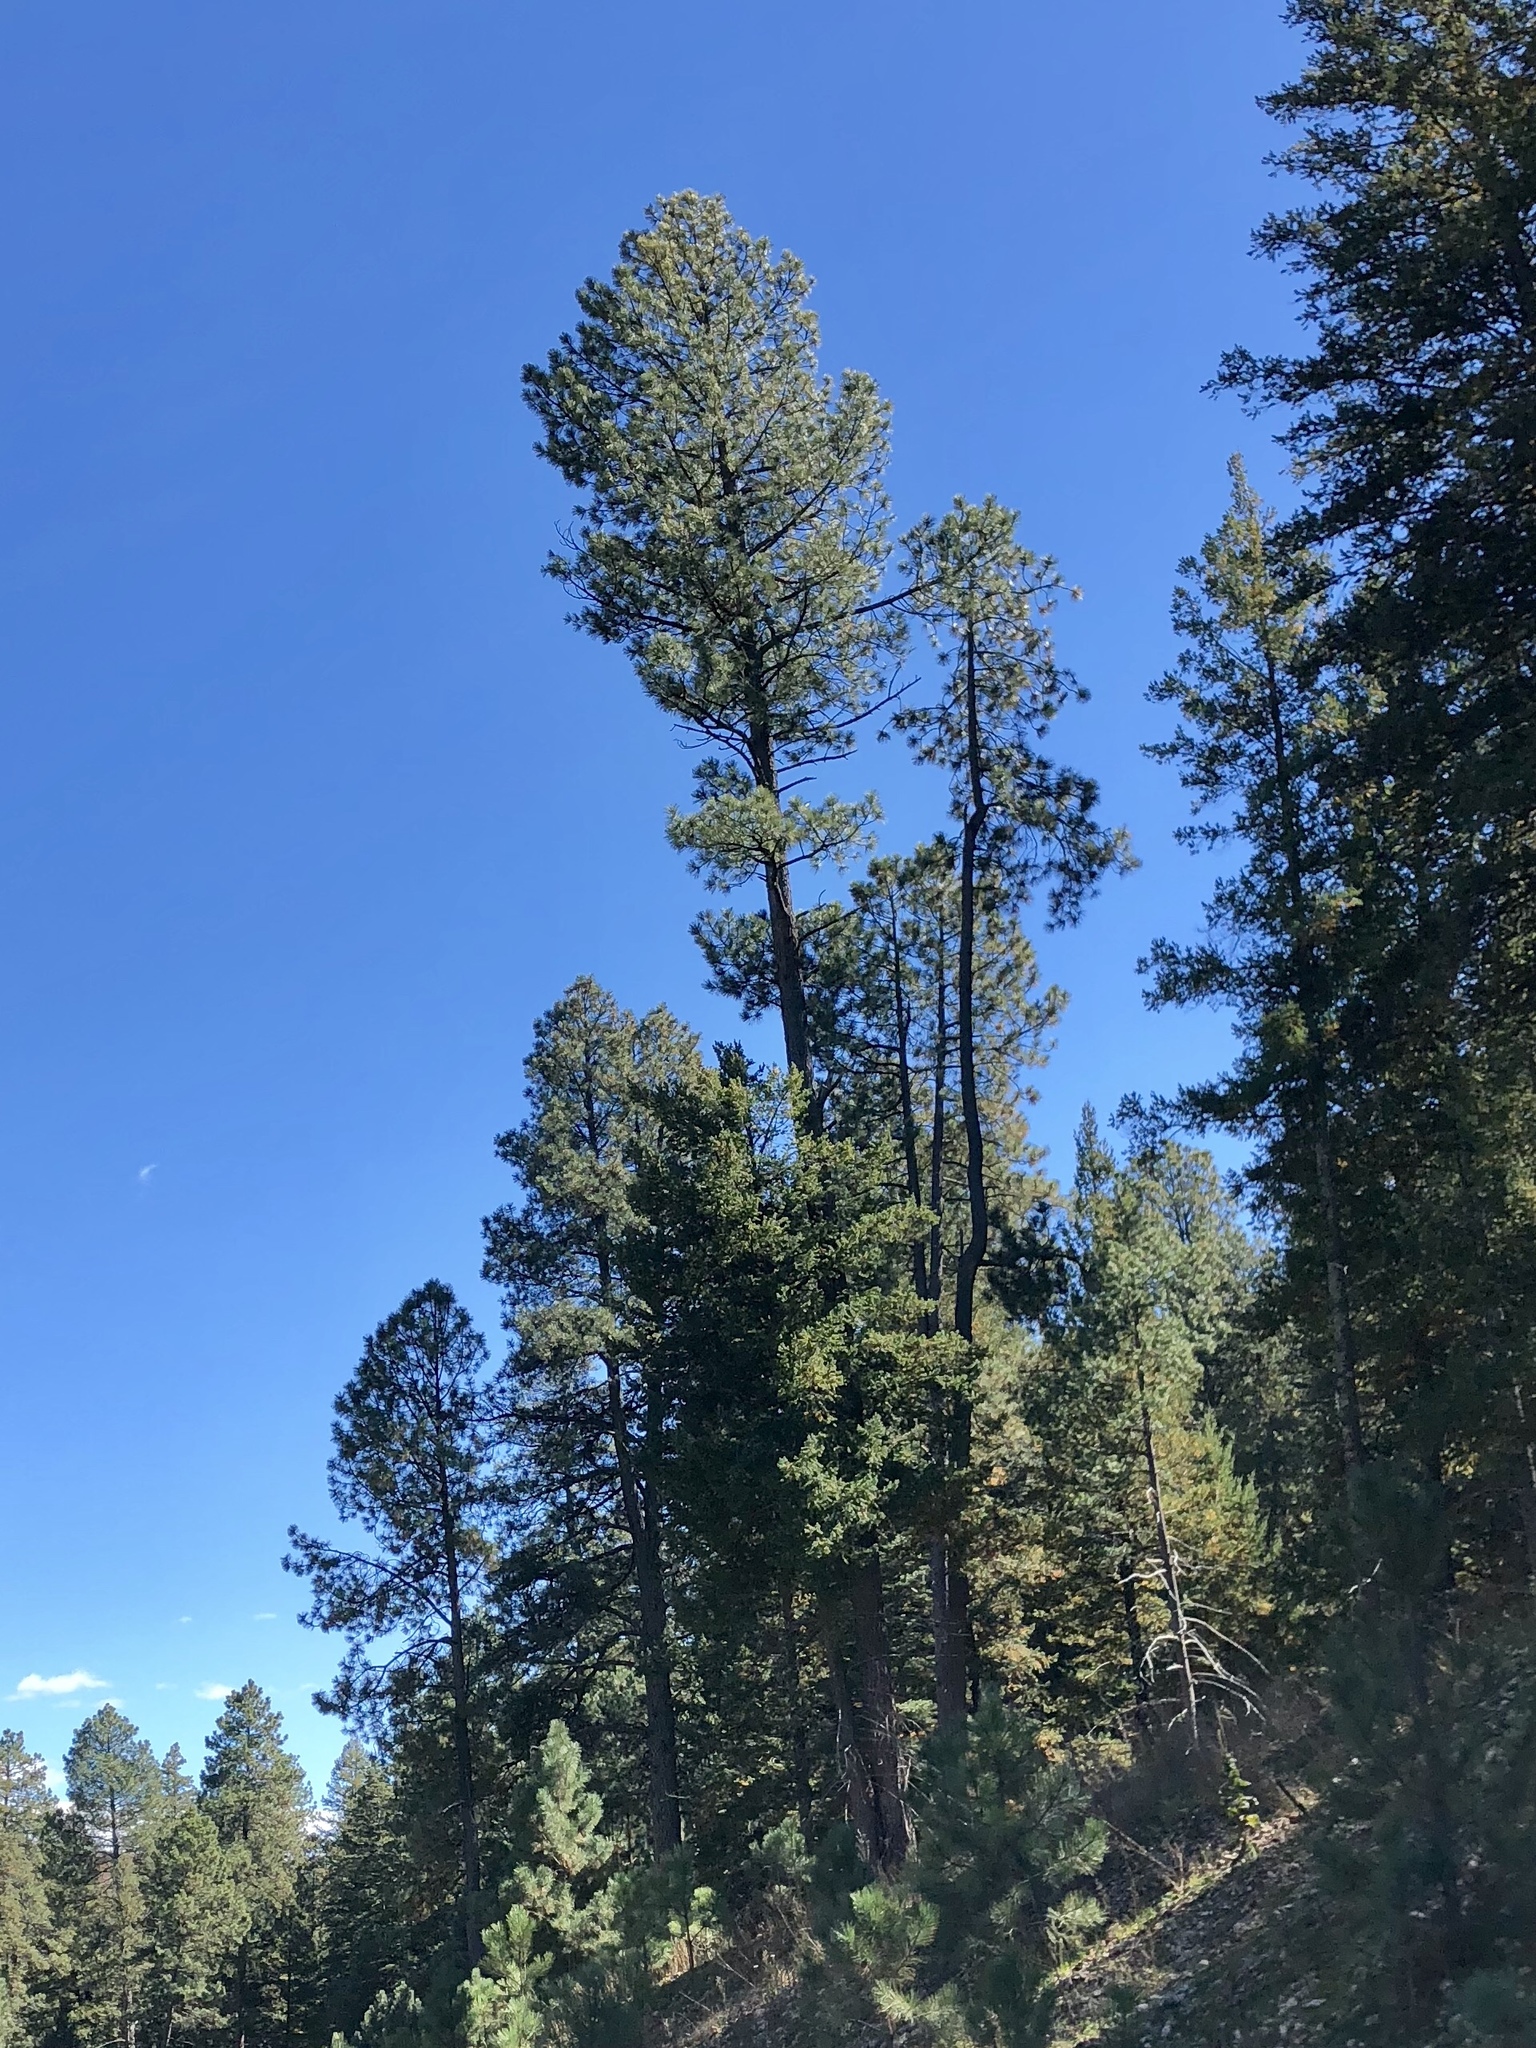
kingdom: Plantae
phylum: Tracheophyta
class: Pinopsida
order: Pinales
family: Pinaceae
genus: Pinus
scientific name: Pinus ponderosa
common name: Western yellow-pine
